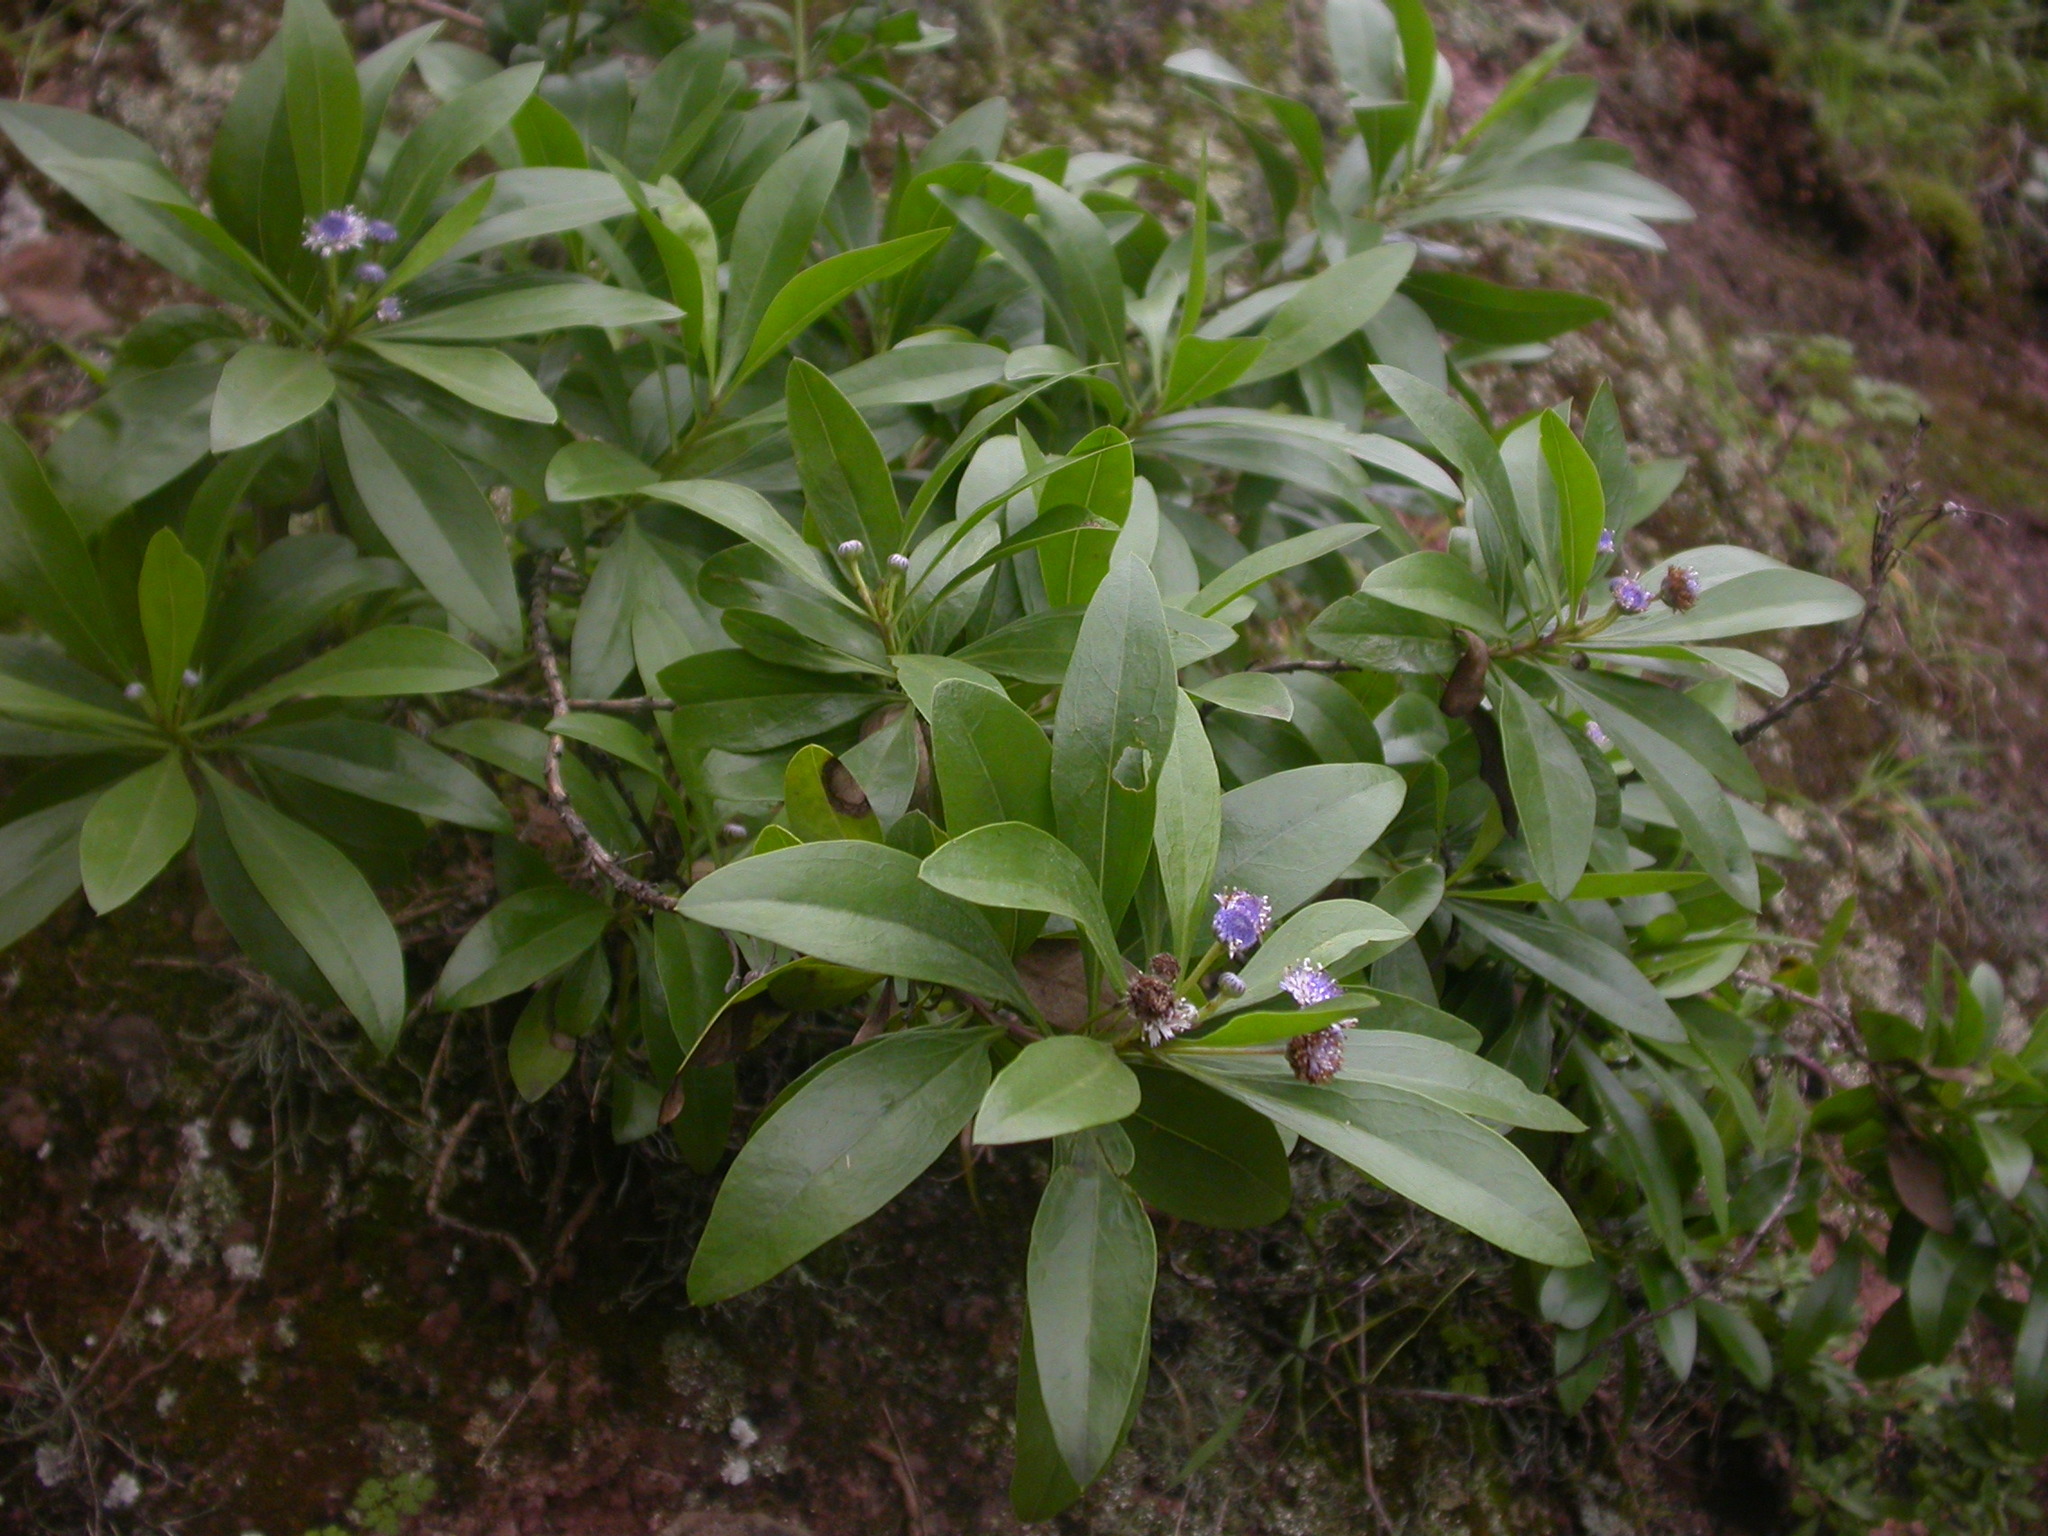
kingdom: Plantae
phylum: Tracheophyta
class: Magnoliopsida
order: Lamiales
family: Plantaginaceae
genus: Globularia
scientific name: Globularia amygdalifolia
